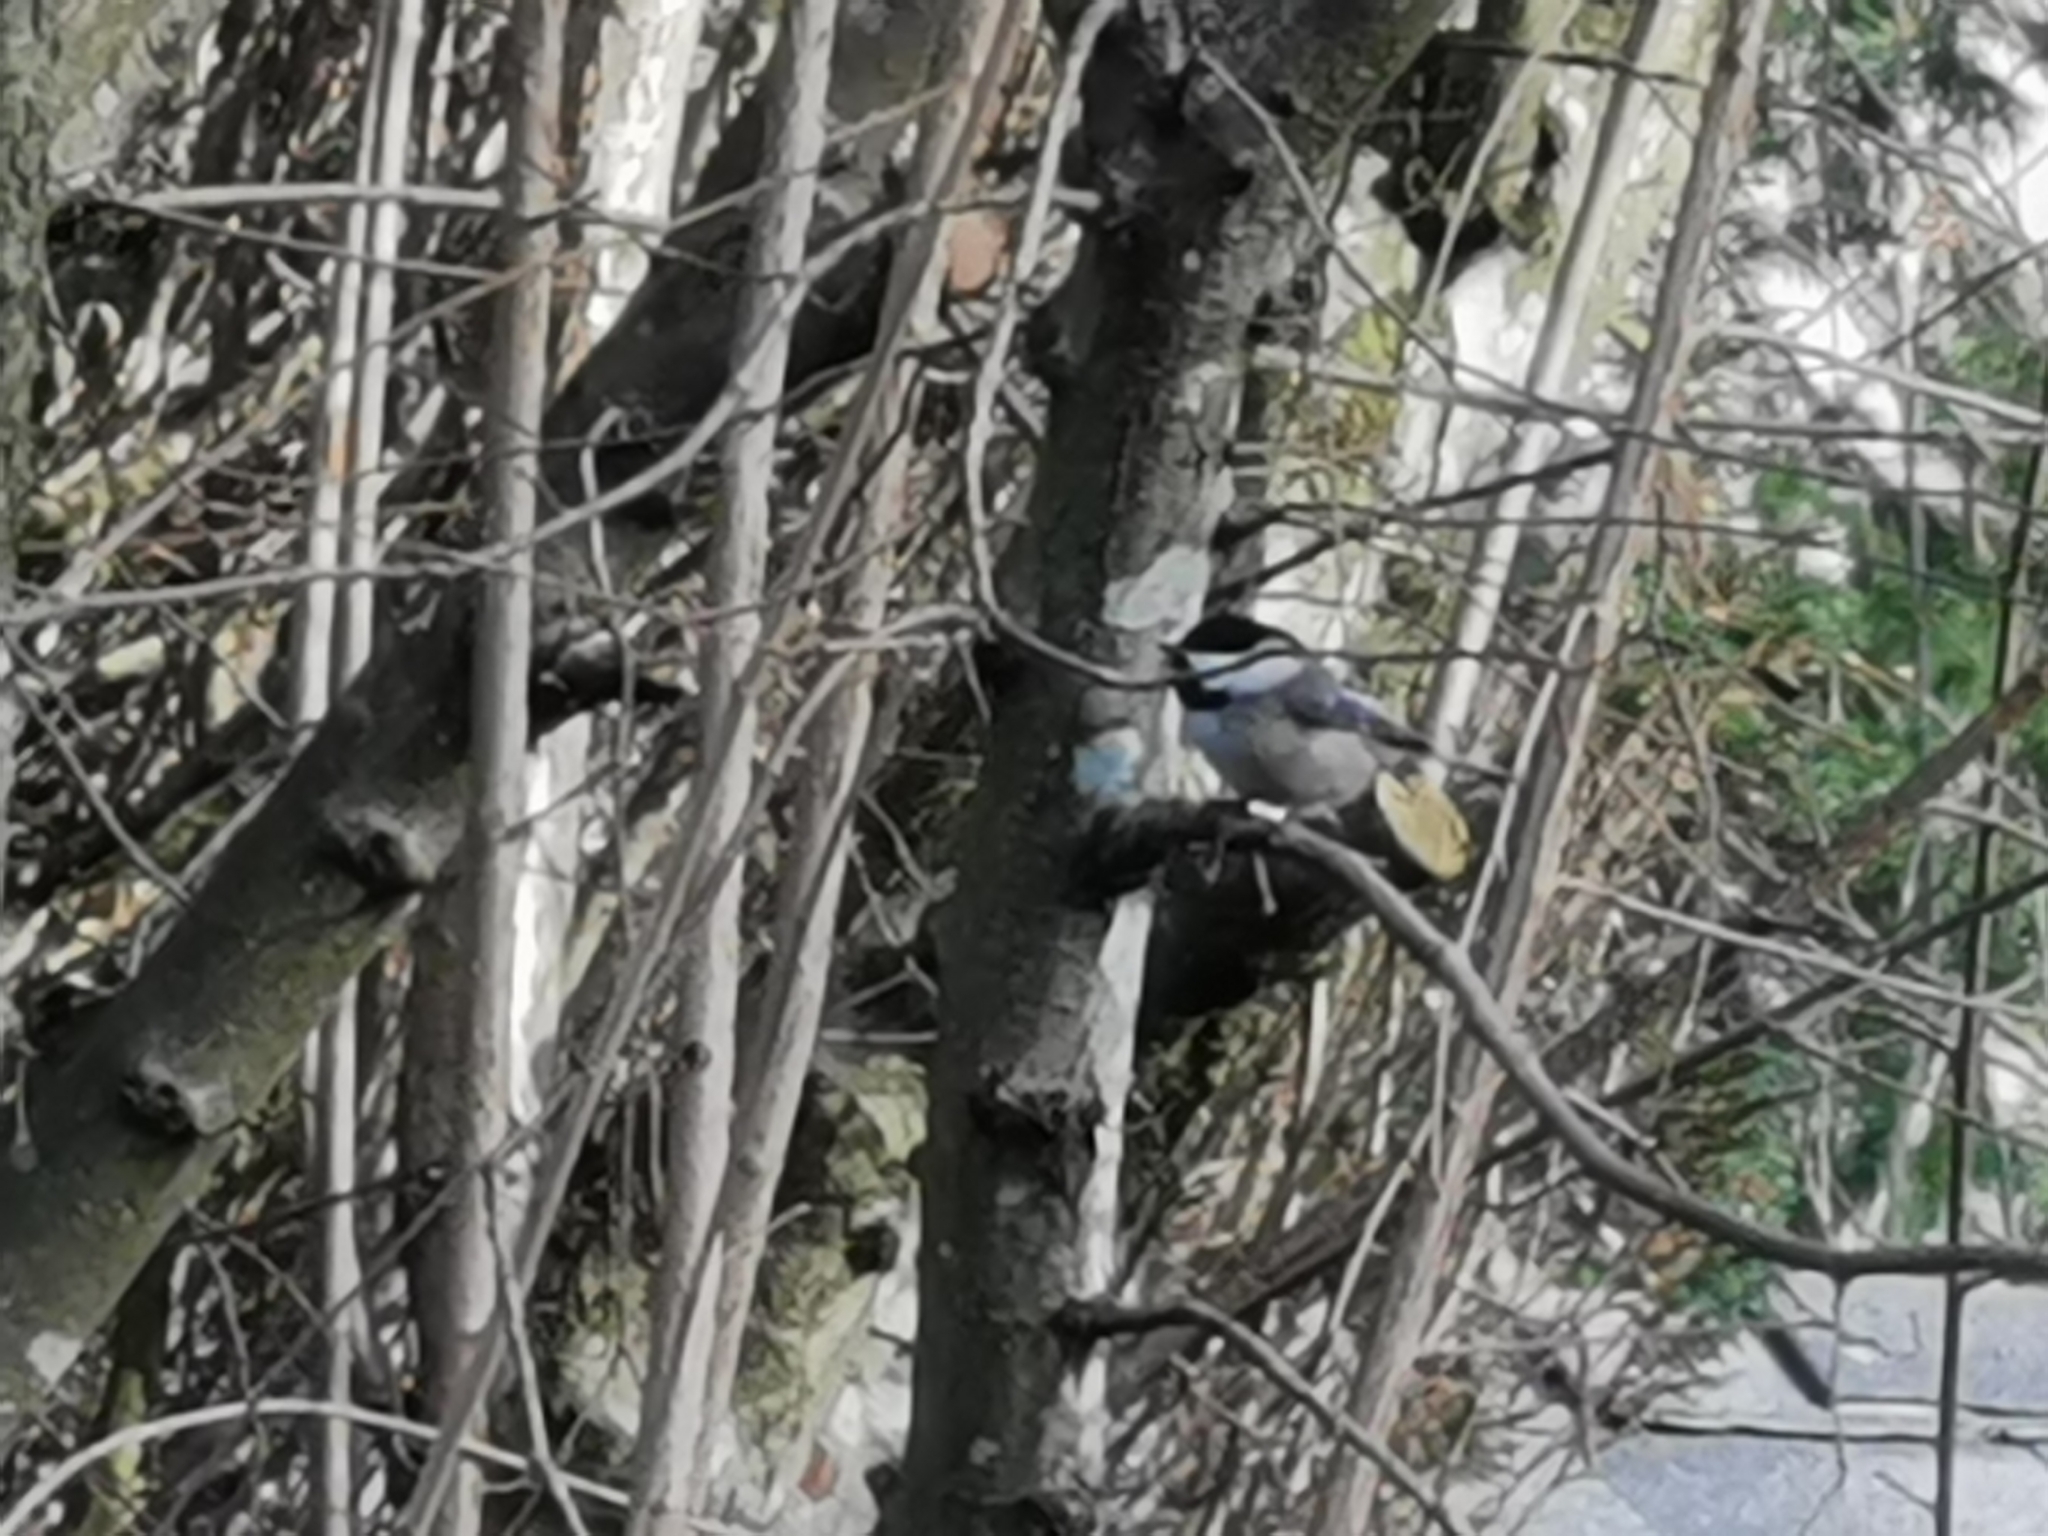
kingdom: Animalia
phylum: Chordata
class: Aves
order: Passeriformes
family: Paridae
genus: Poecile
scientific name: Poecile atricapillus
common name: Black-capped chickadee
